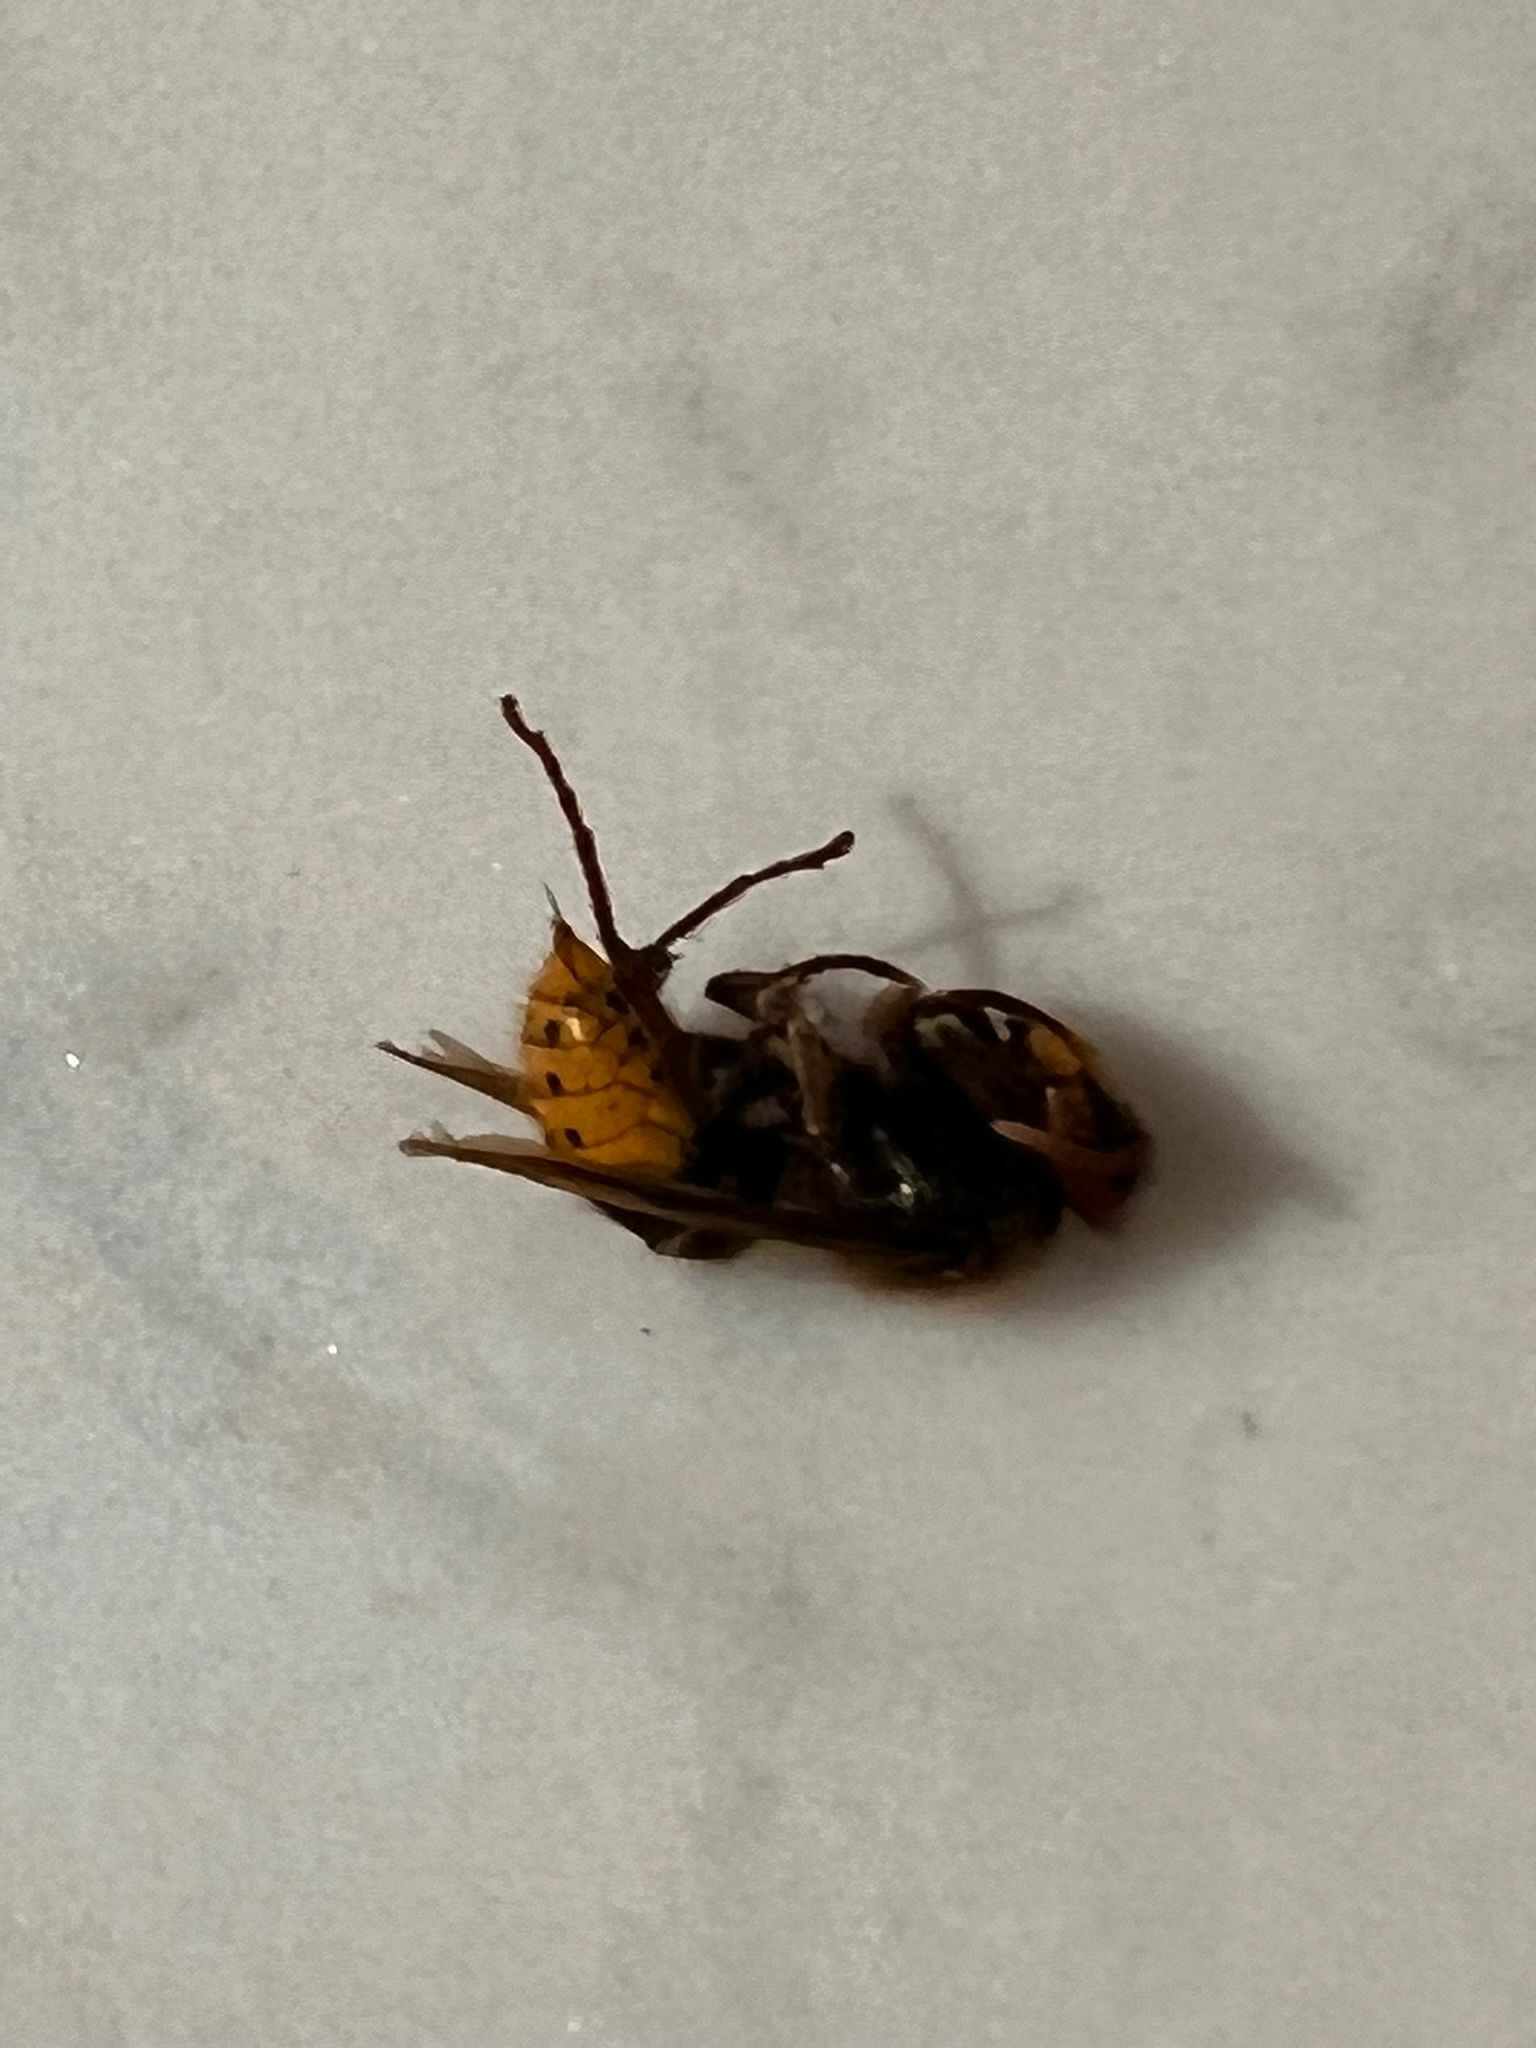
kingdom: Animalia
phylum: Arthropoda
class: Insecta
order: Hymenoptera
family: Vespidae
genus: Vespa
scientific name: Vespa crabro
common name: Hornet
